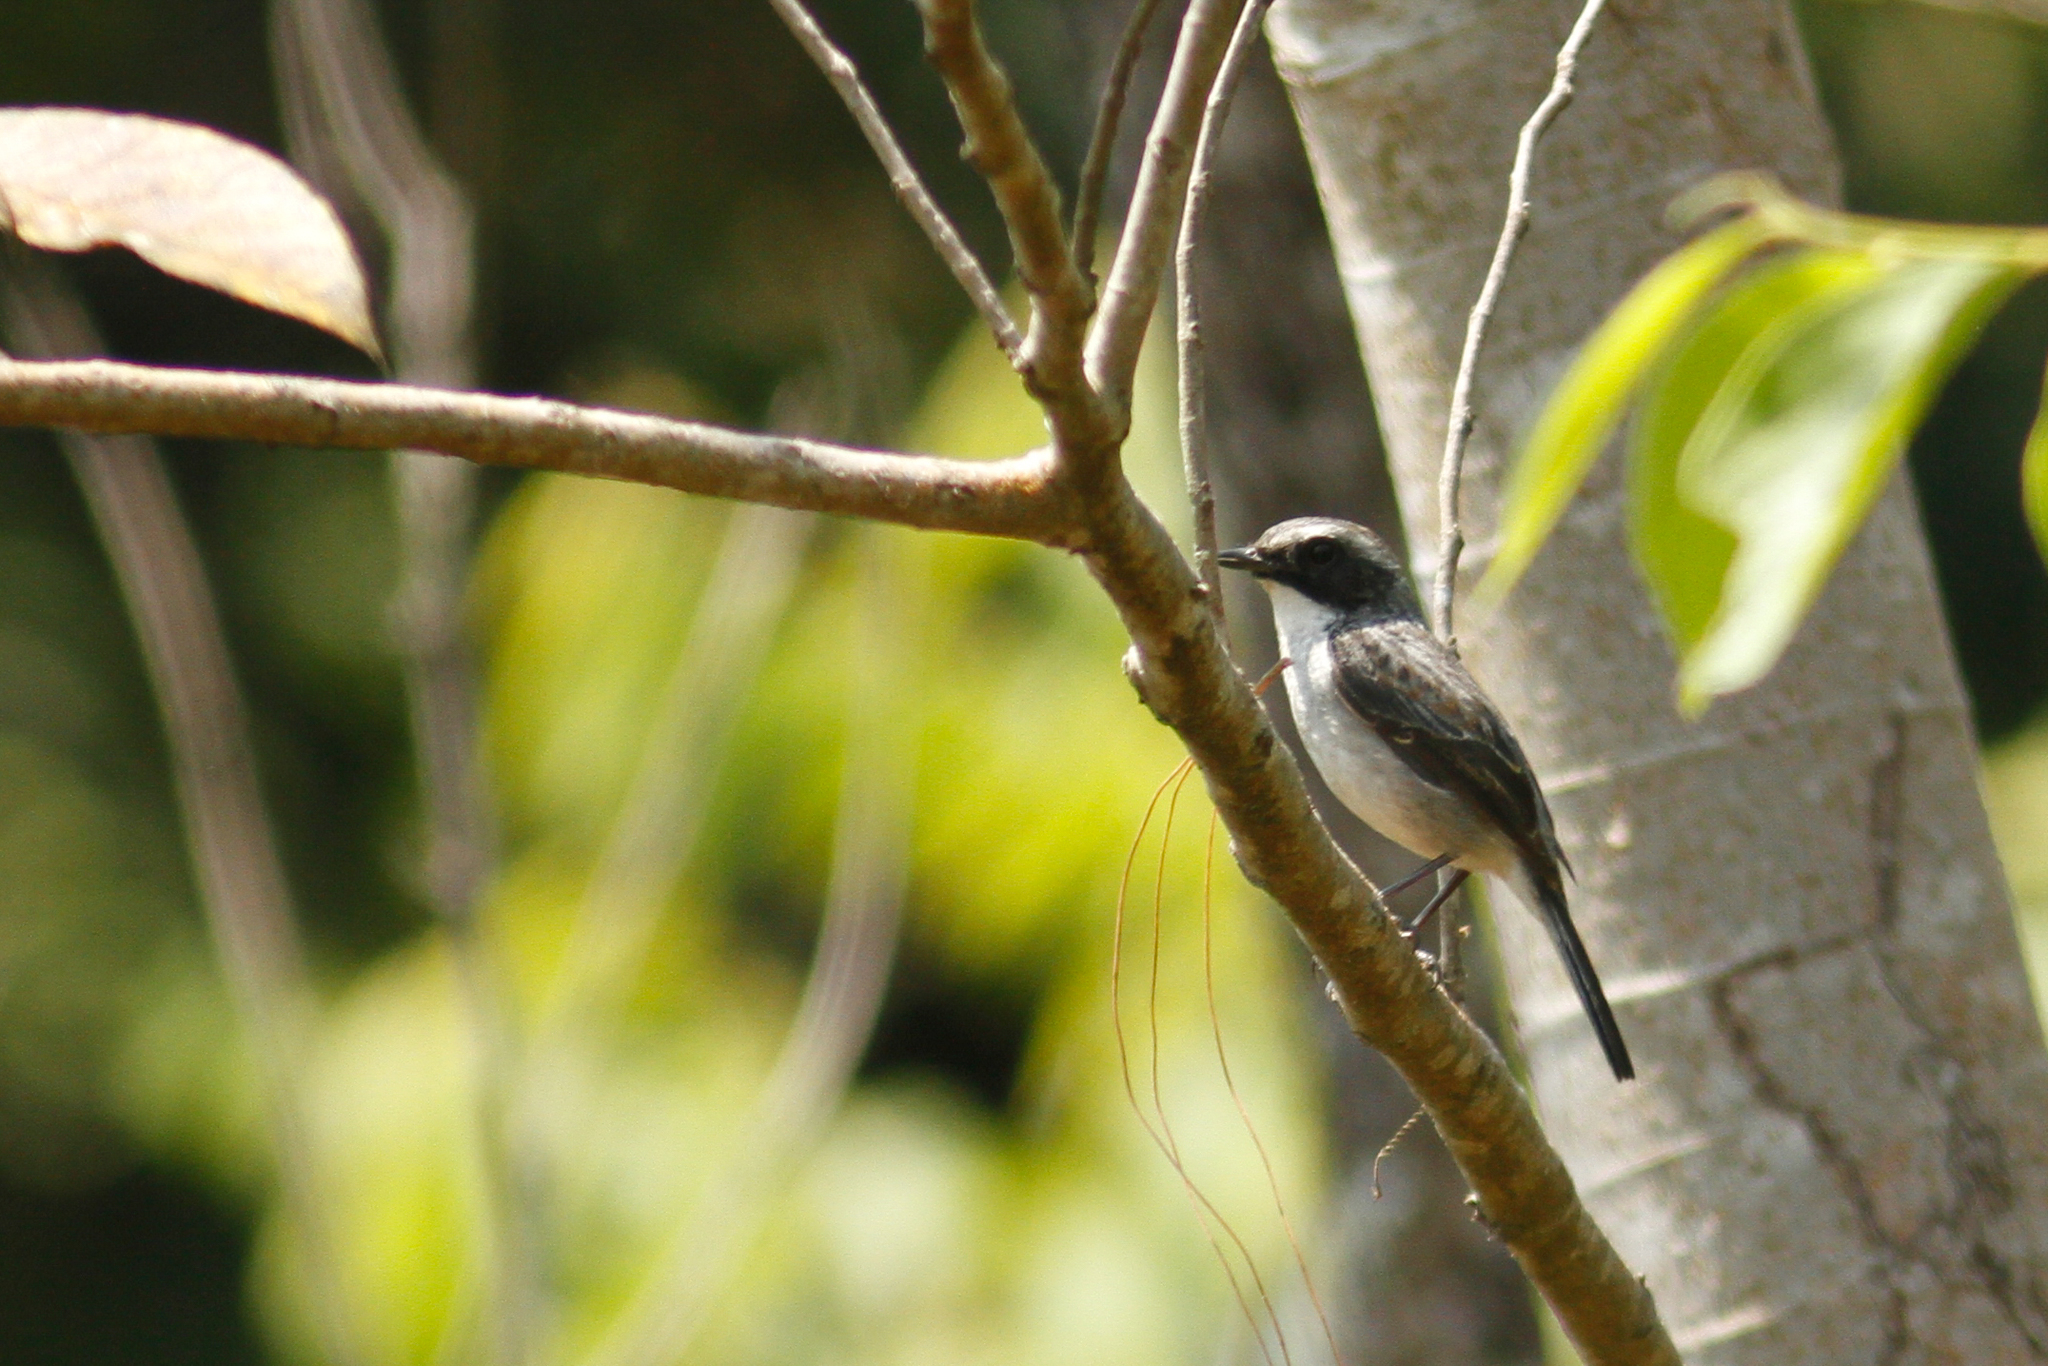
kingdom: Animalia
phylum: Chordata
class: Aves
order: Passeriformes
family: Muscicapidae
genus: Saxicola
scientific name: Saxicola ferreus
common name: Grey bush chat
